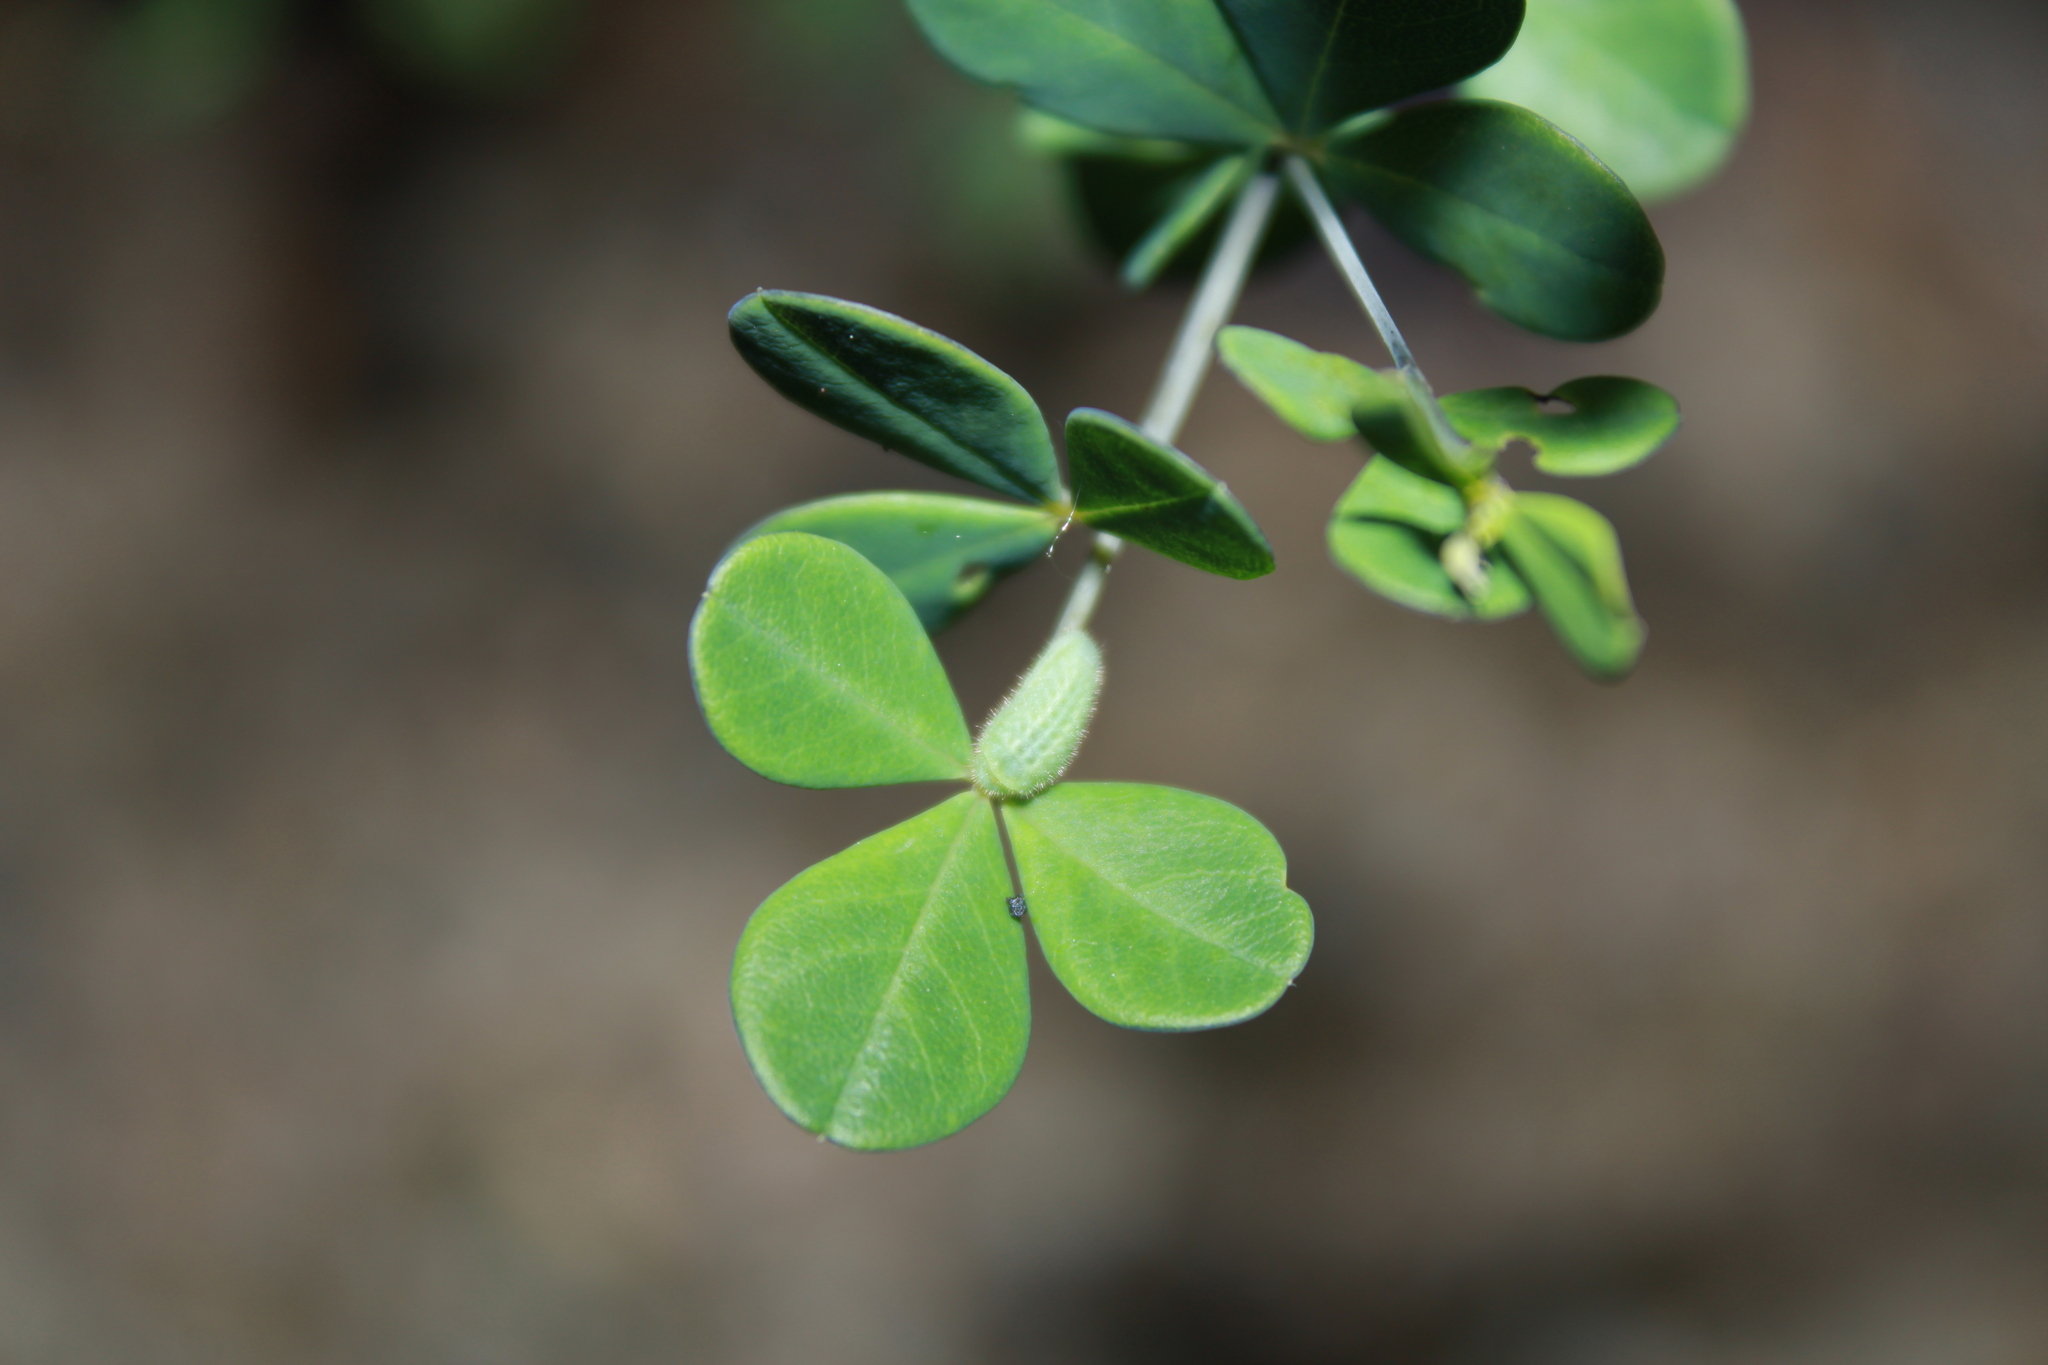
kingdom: Animalia
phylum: Arthropoda
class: Insecta
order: Lepidoptera
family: Lycaenidae
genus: Thecla
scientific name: Thecla irus
